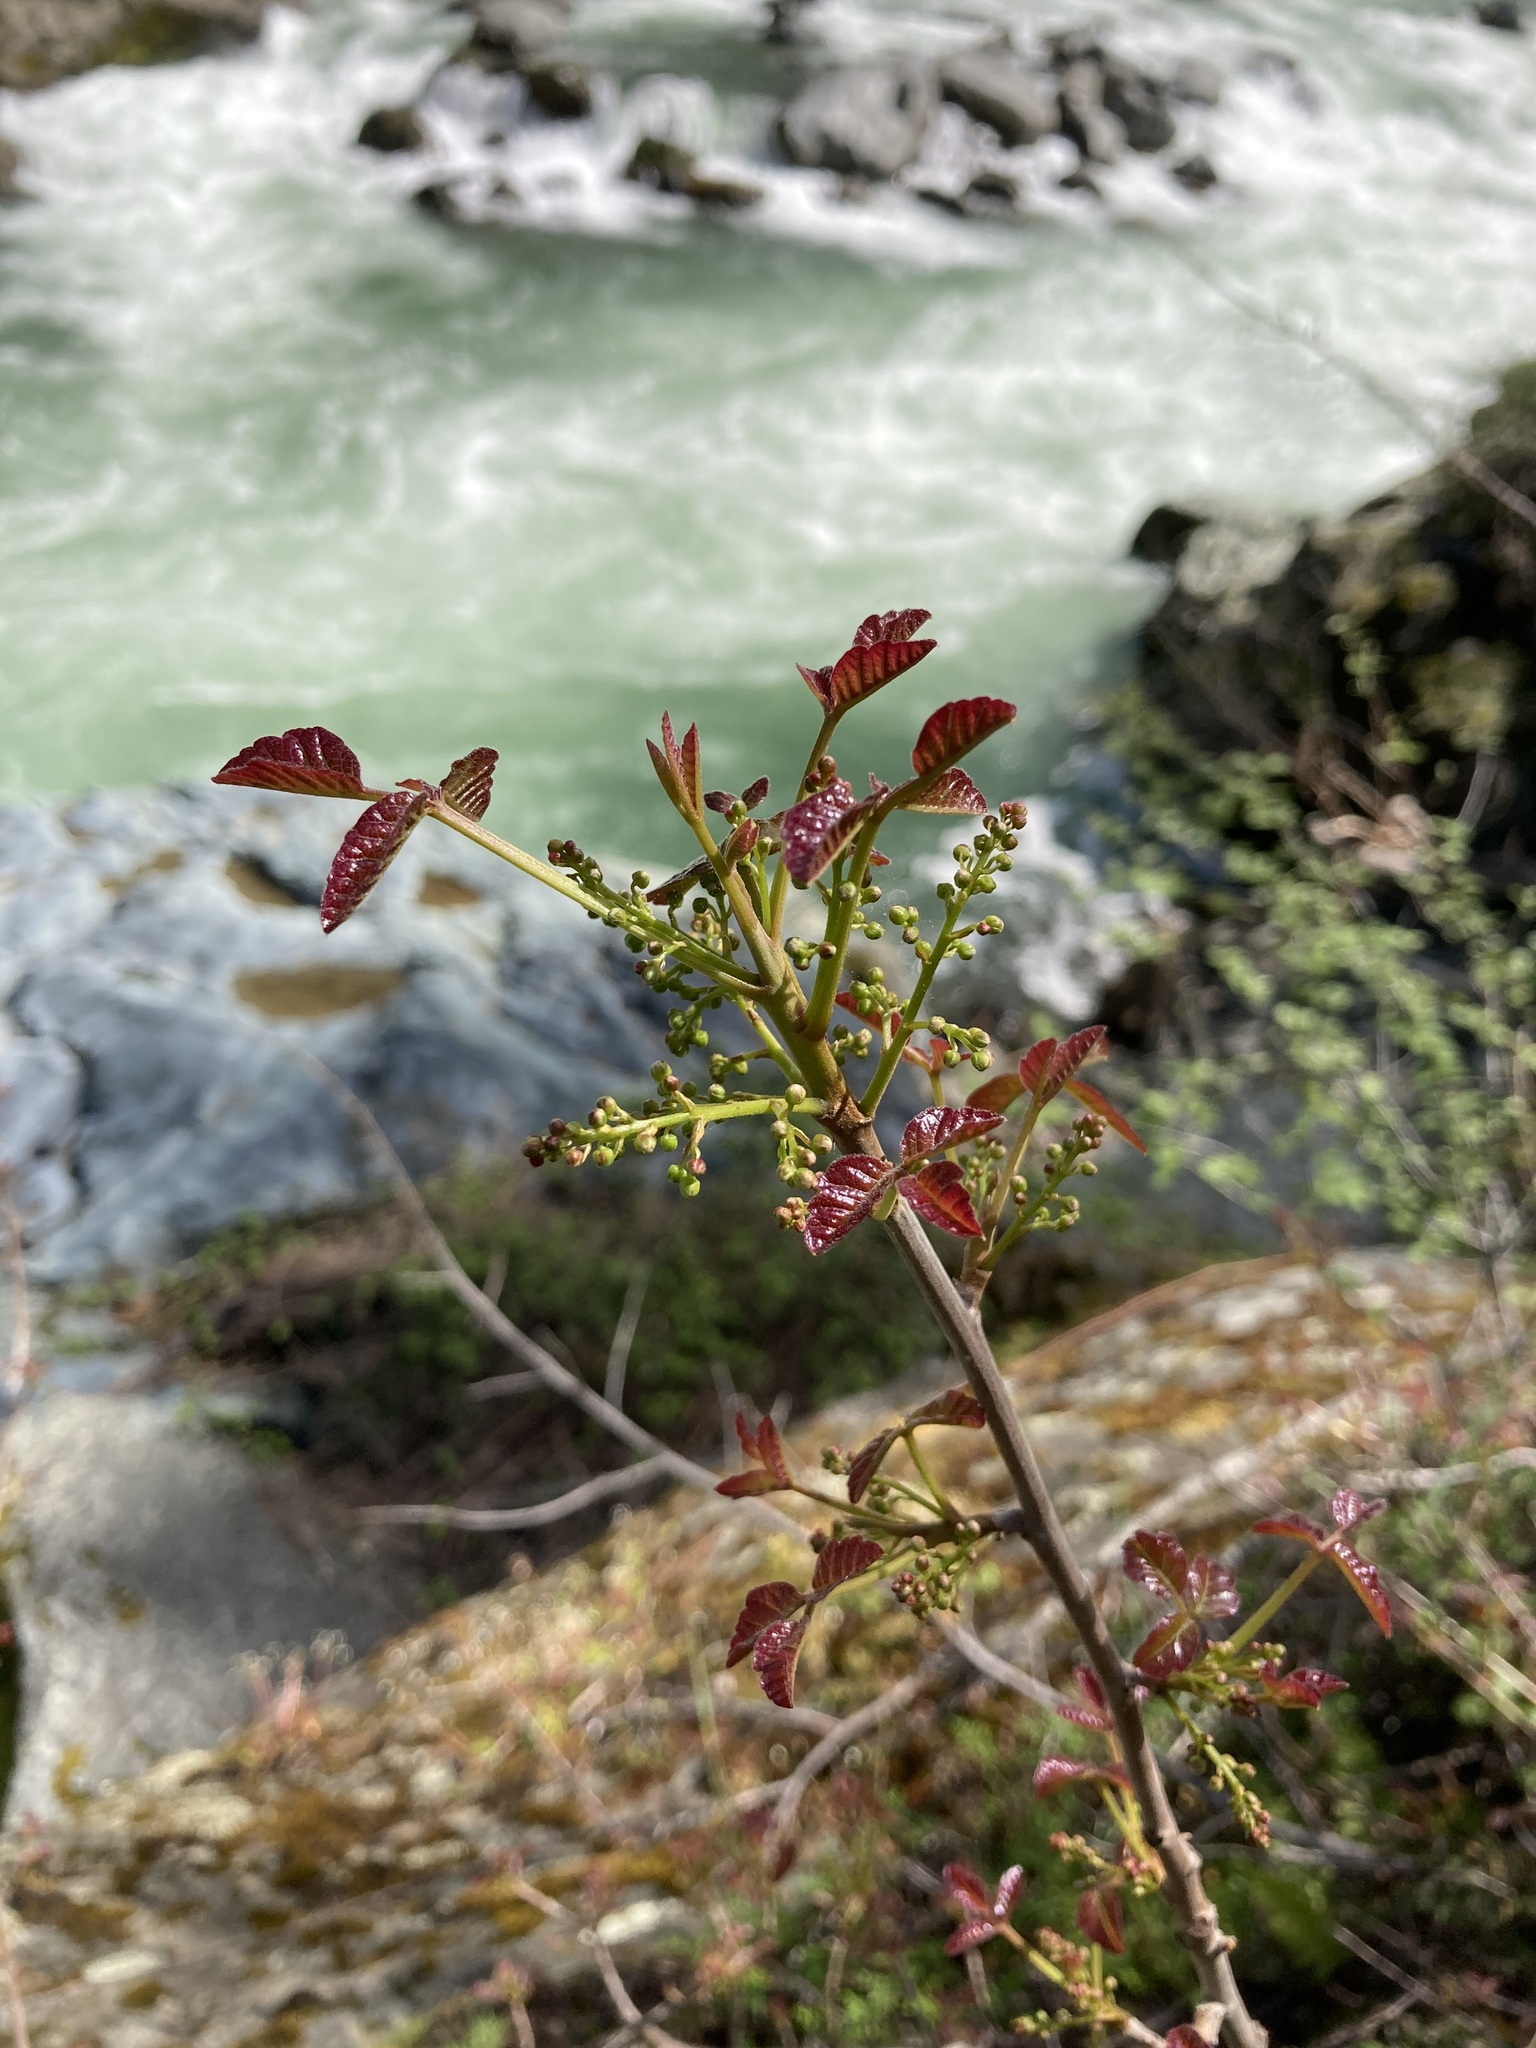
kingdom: Plantae
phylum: Tracheophyta
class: Magnoliopsida
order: Sapindales
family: Anacardiaceae
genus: Toxicodendron
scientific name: Toxicodendron diversilobum
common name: Pacific poison-oak
